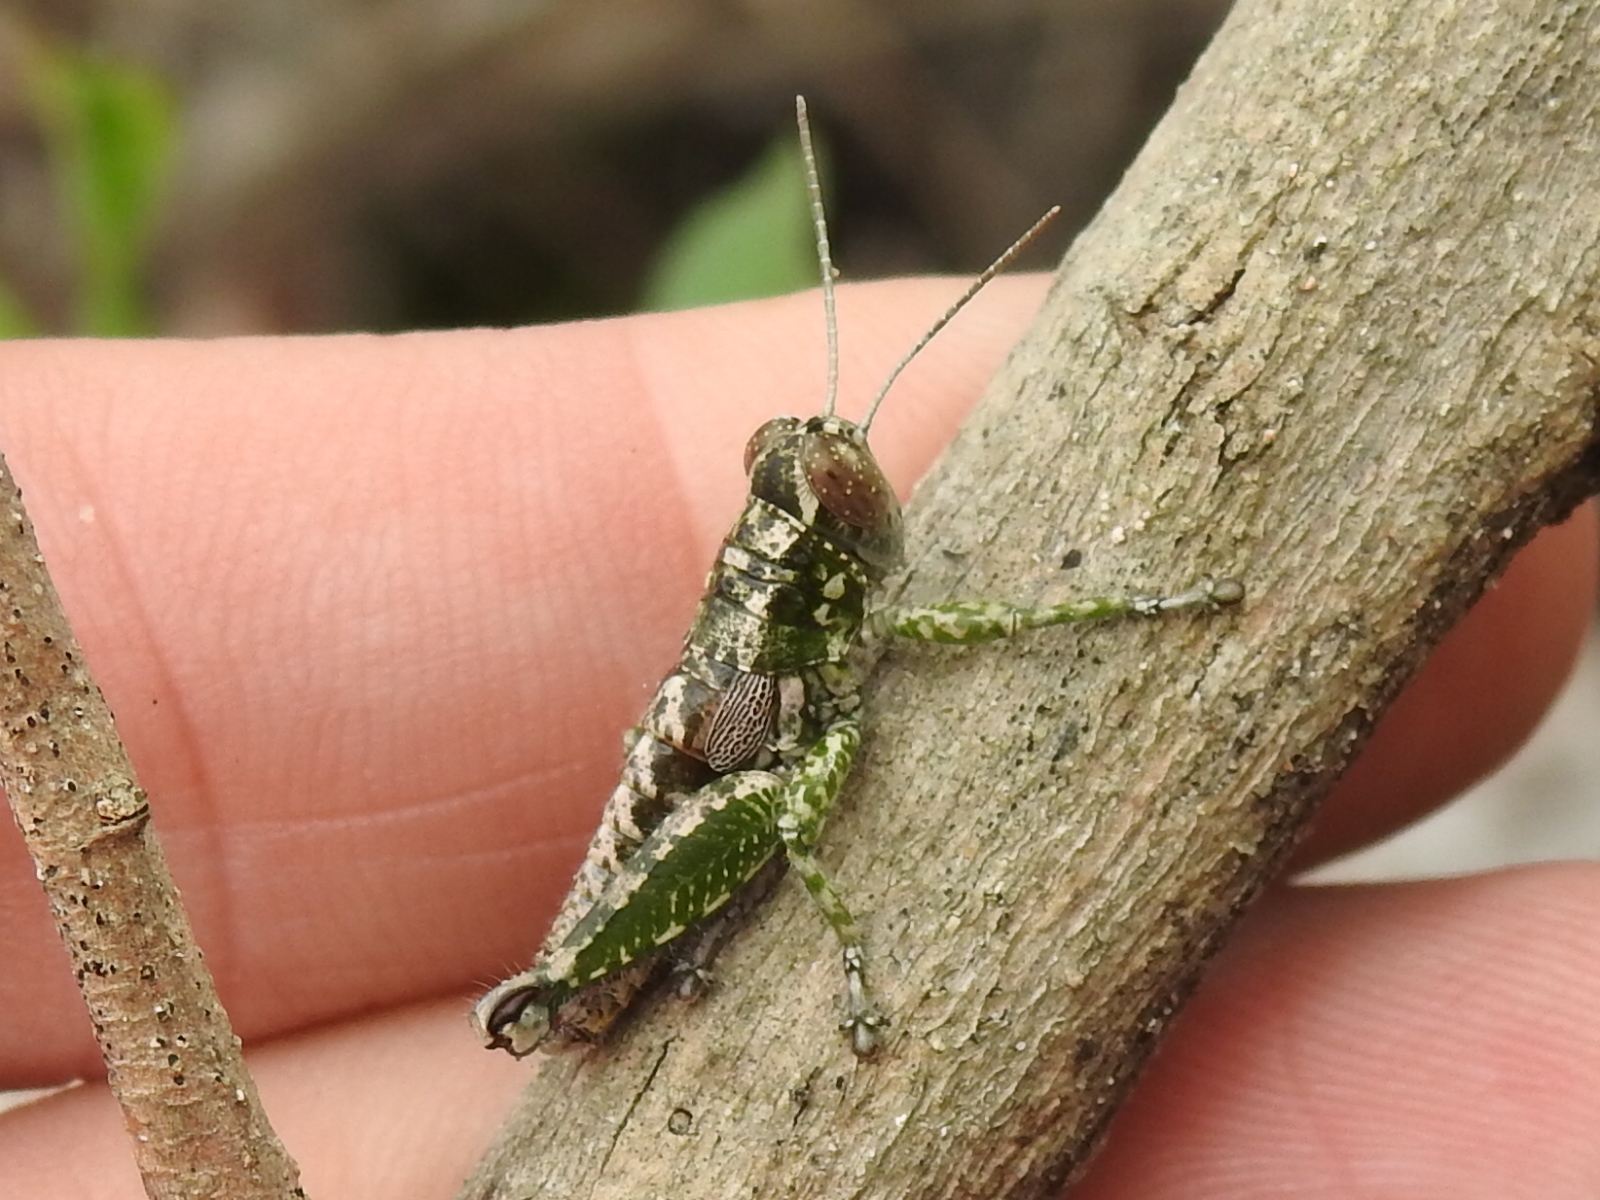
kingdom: Animalia
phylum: Arthropoda
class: Insecta
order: Orthoptera
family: Acrididae
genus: Phaulotettix
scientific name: Phaulotettix compressus
